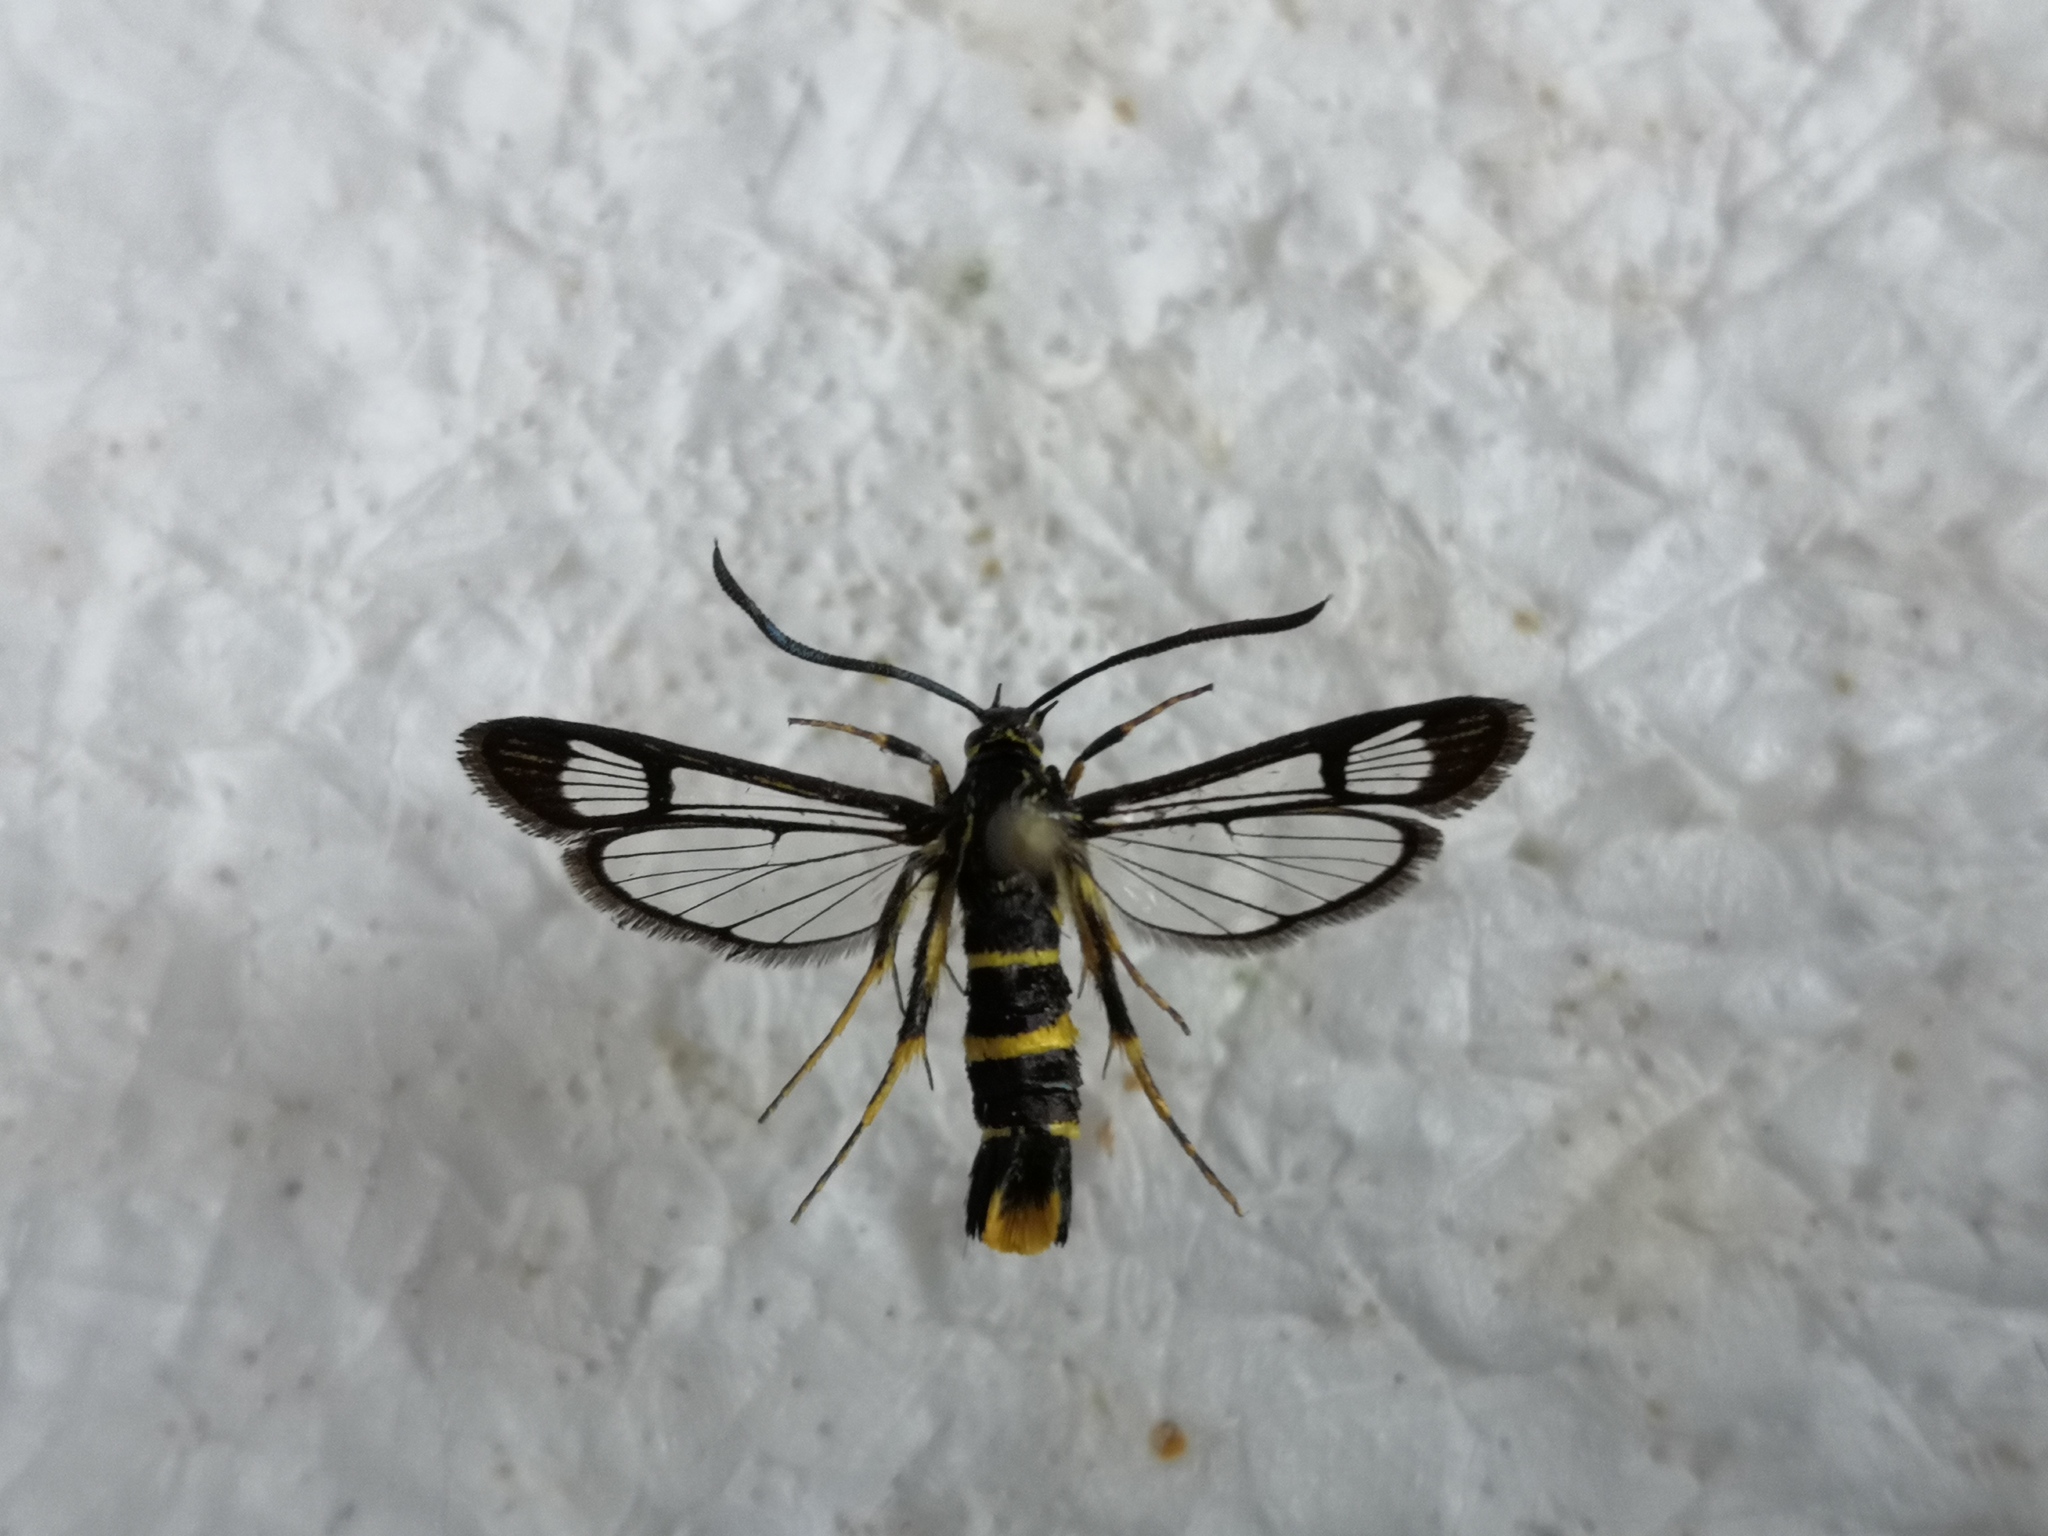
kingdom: Animalia
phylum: Arthropoda
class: Insecta
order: Lepidoptera
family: Sesiidae
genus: Synanthedon
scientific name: Synanthedon loranthi
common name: Mistletoe clearwing
